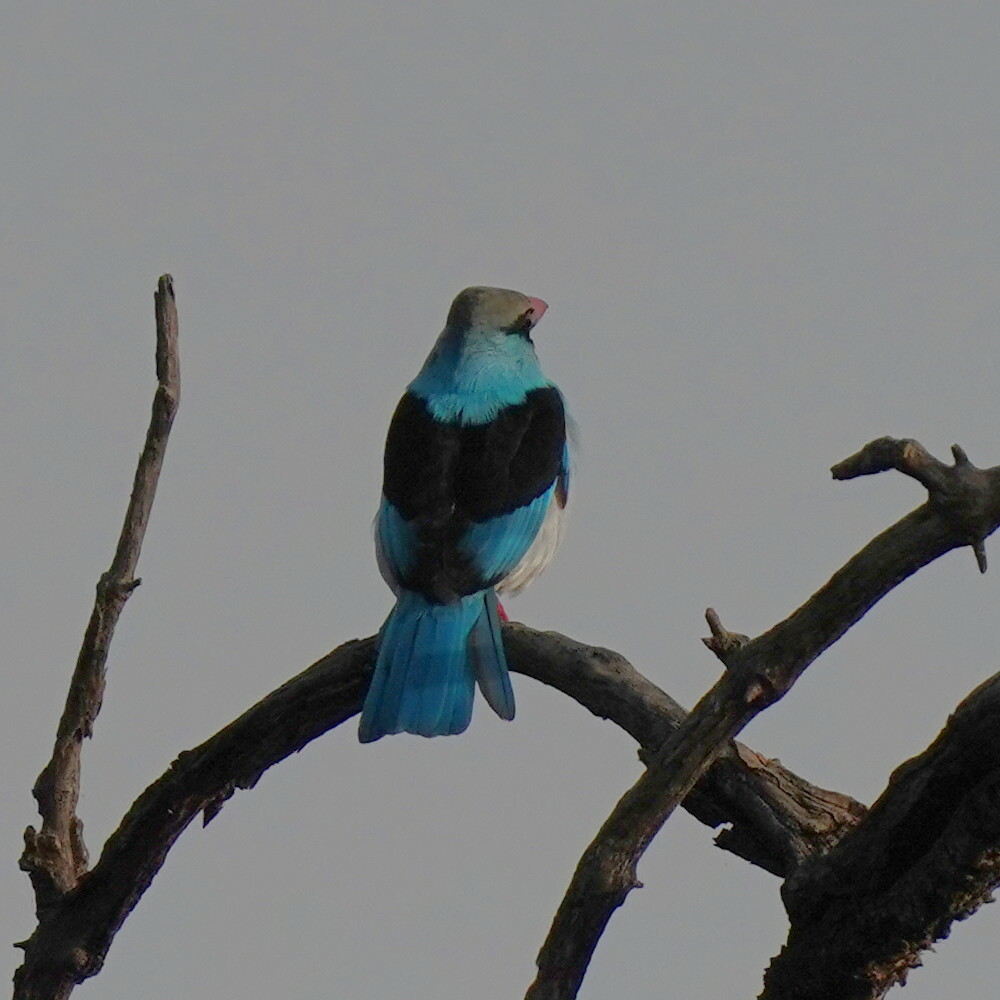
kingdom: Animalia
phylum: Chordata
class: Aves
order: Coraciiformes
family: Alcedinidae
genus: Halcyon
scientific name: Halcyon malimbica
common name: Blue-breasted kingfisher
